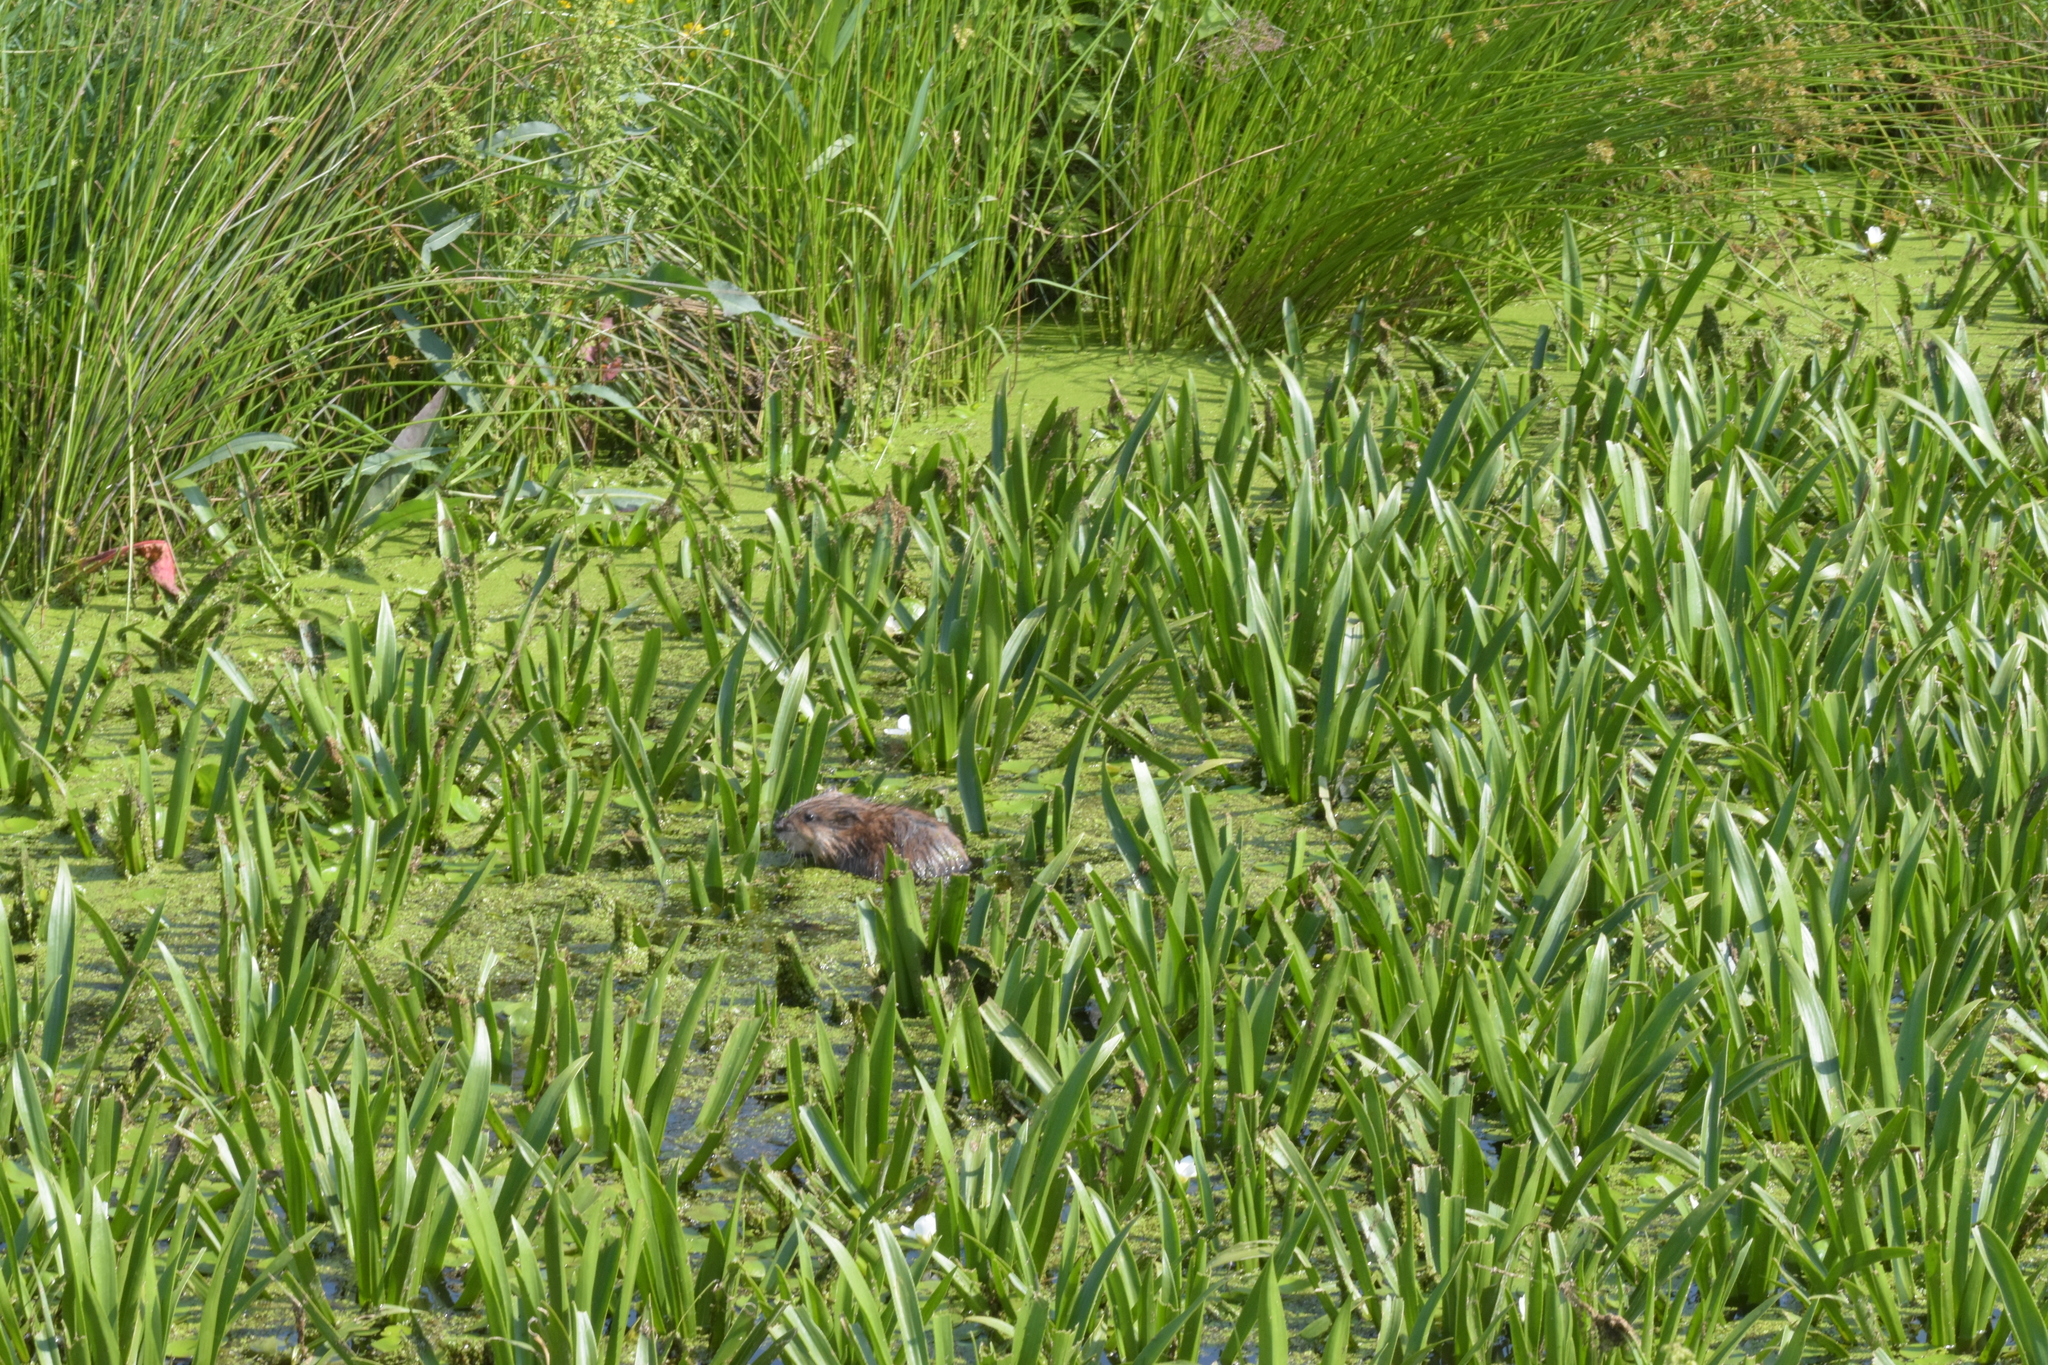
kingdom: Animalia
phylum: Chordata
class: Mammalia
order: Rodentia
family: Cricetidae
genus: Ondatra
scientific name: Ondatra zibethicus
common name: Muskrat
